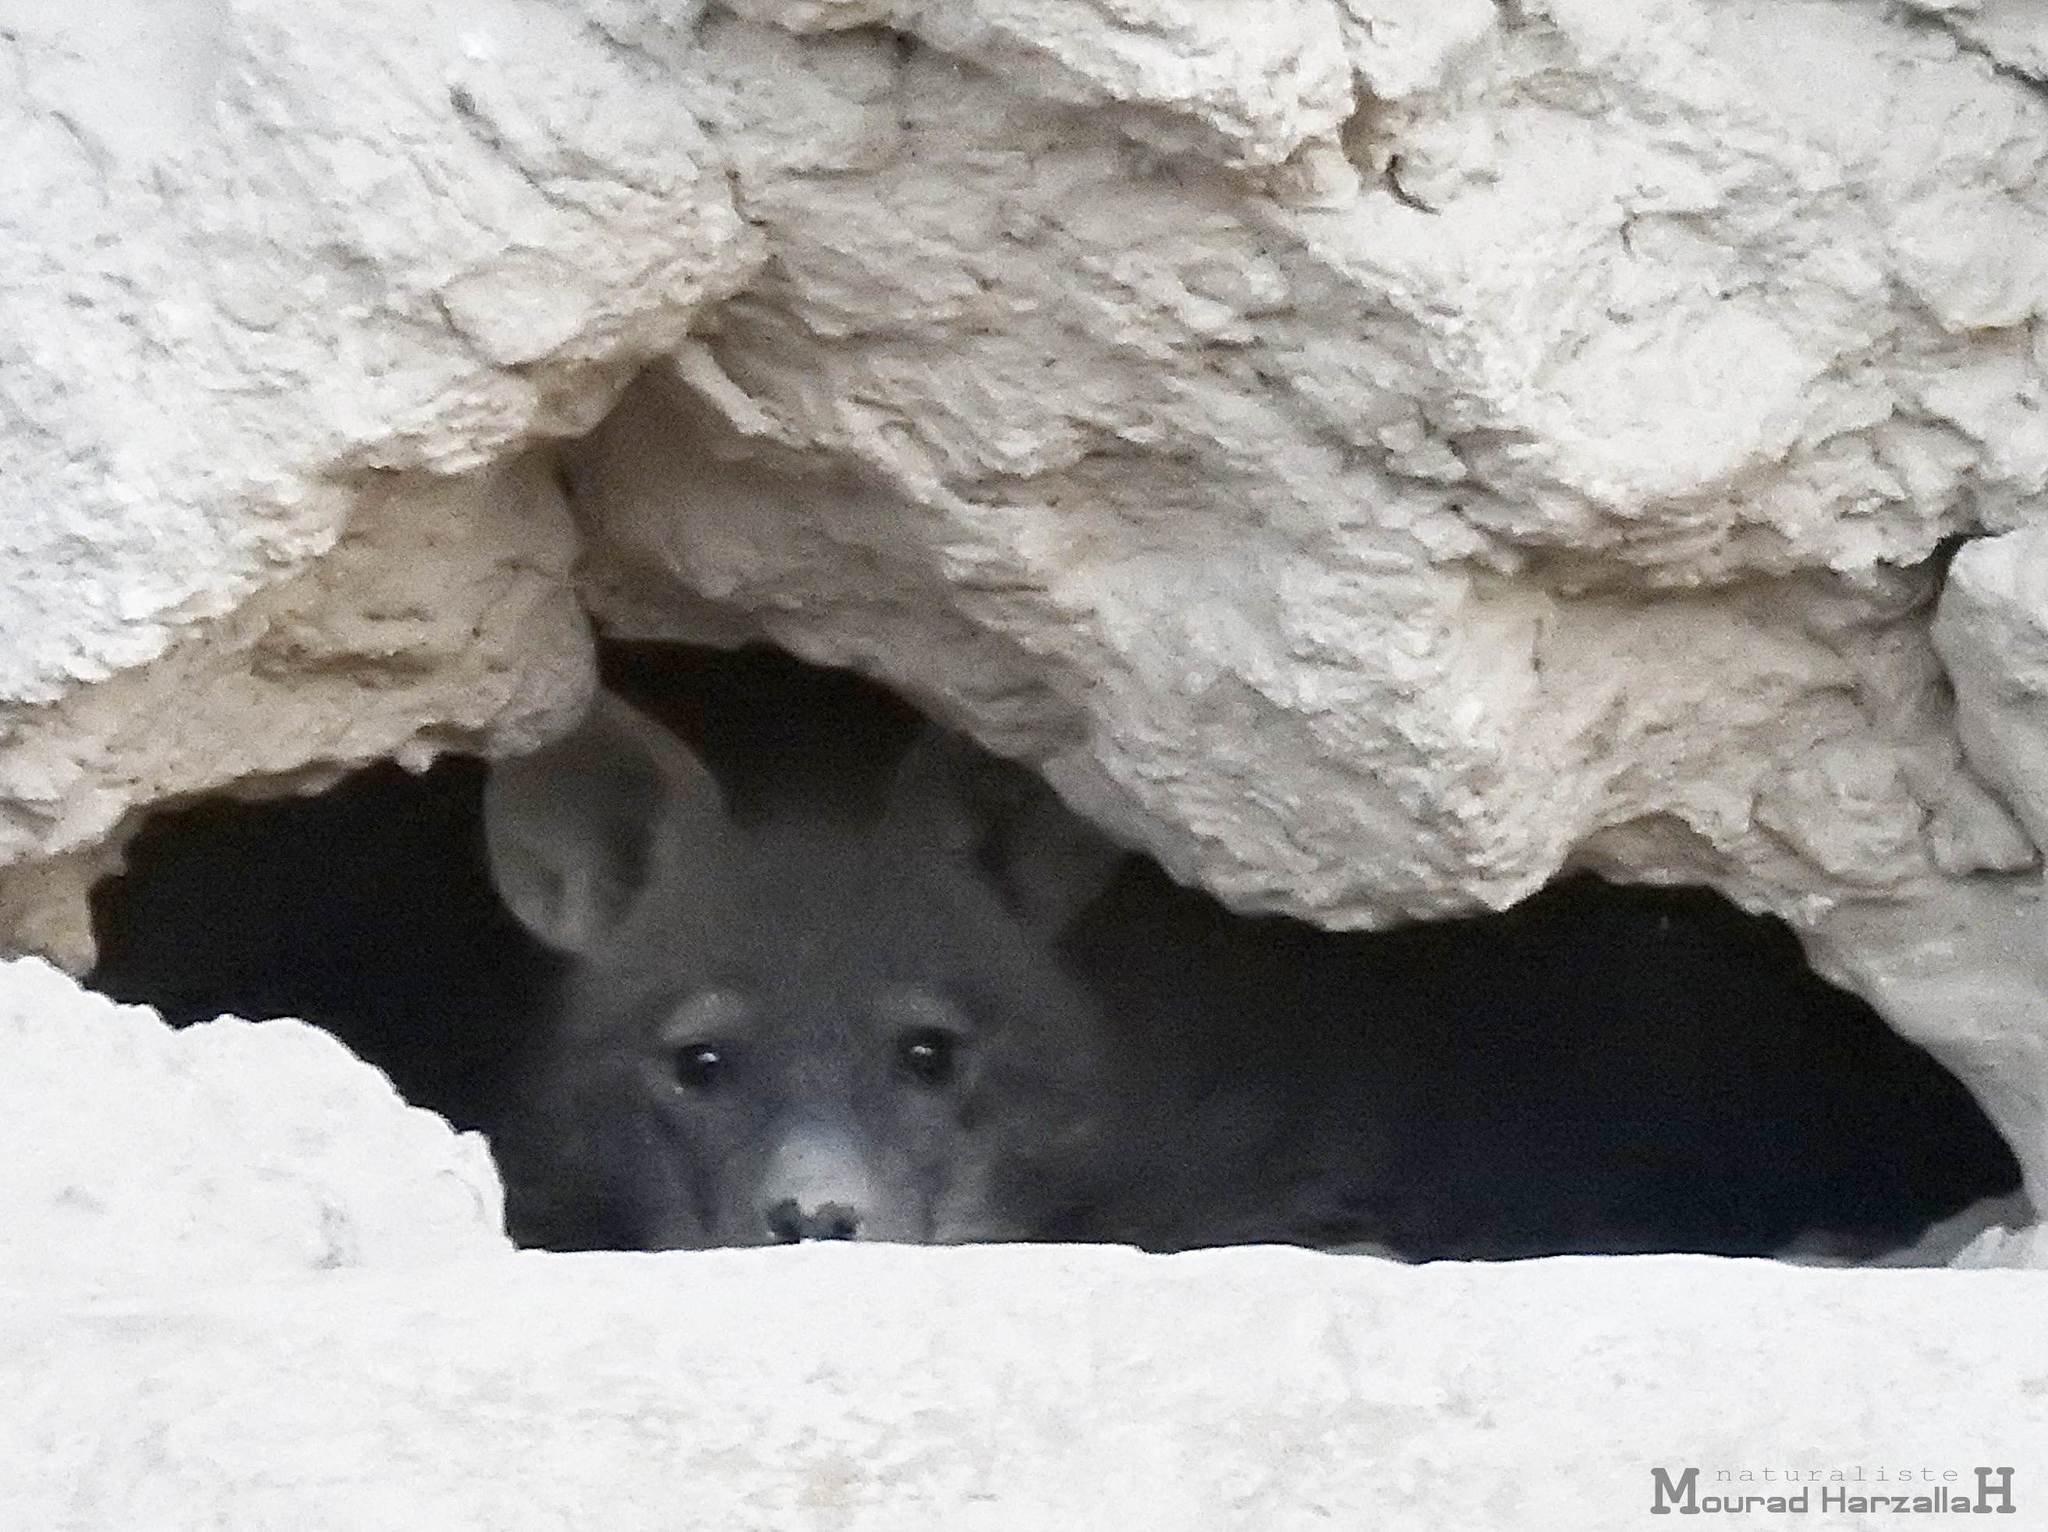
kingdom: Animalia
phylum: Chordata
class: Mammalia
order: Carnivora
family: Hyaenidae
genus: Hyaena
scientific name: Hyaena hyaena
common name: Striped hyaena
